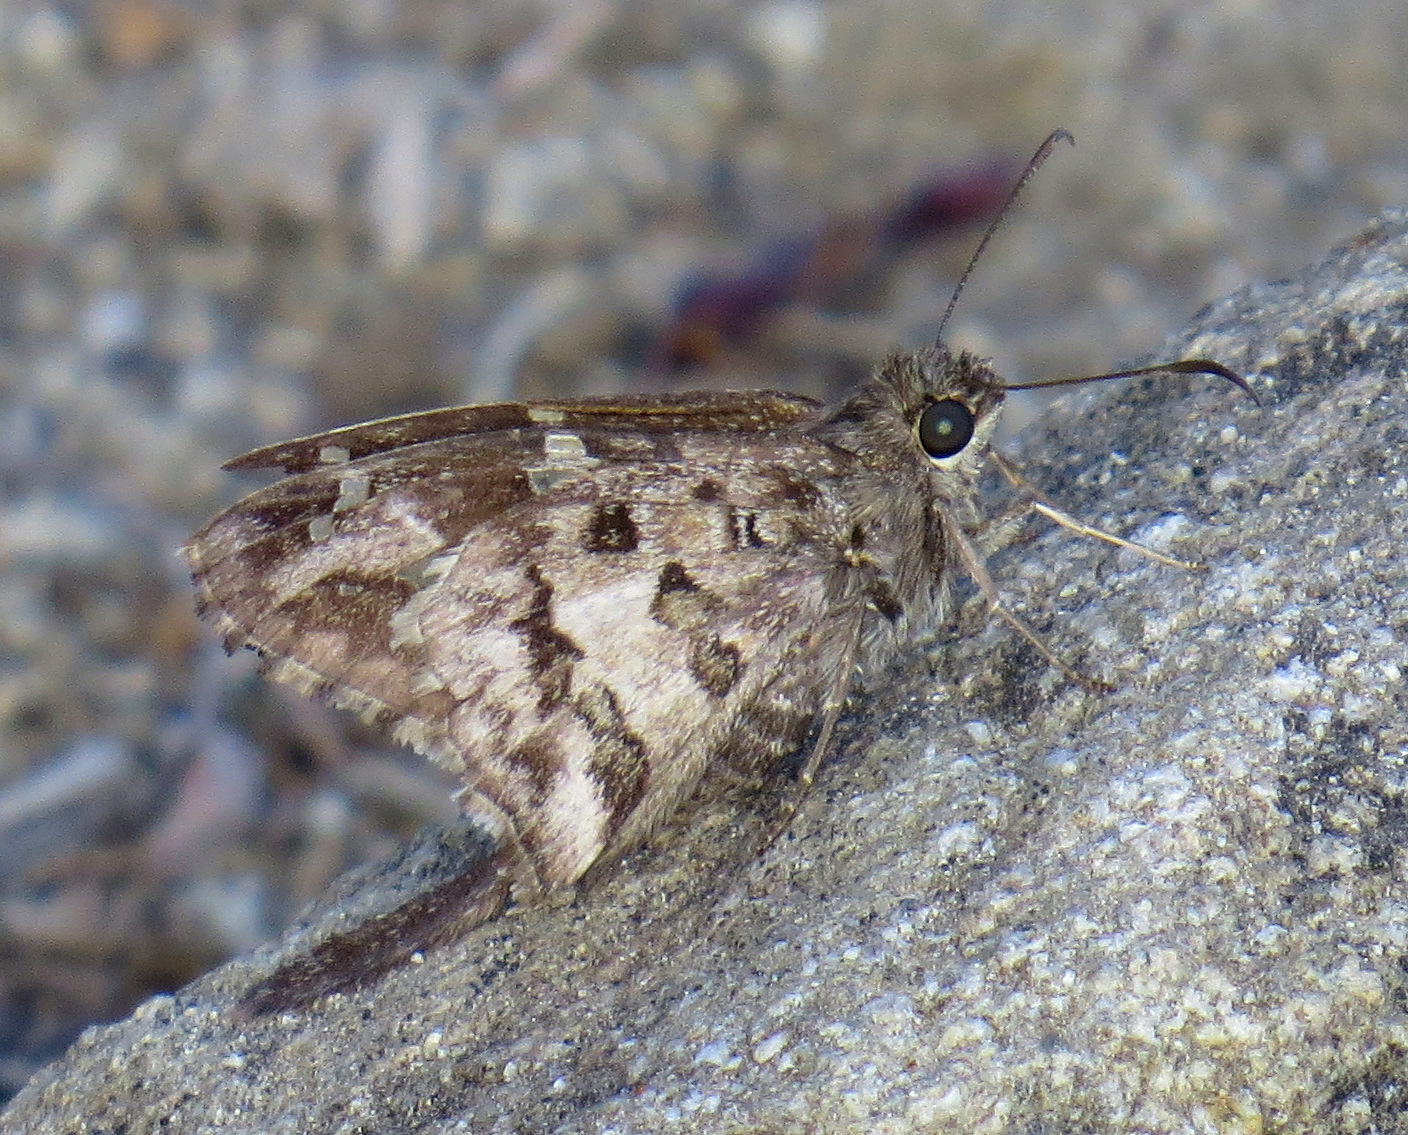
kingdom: Animalia
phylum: Arthropoda
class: Insecta
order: Lepidoptera
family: Hesperiidae
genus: Thorybes
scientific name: Thorybes
